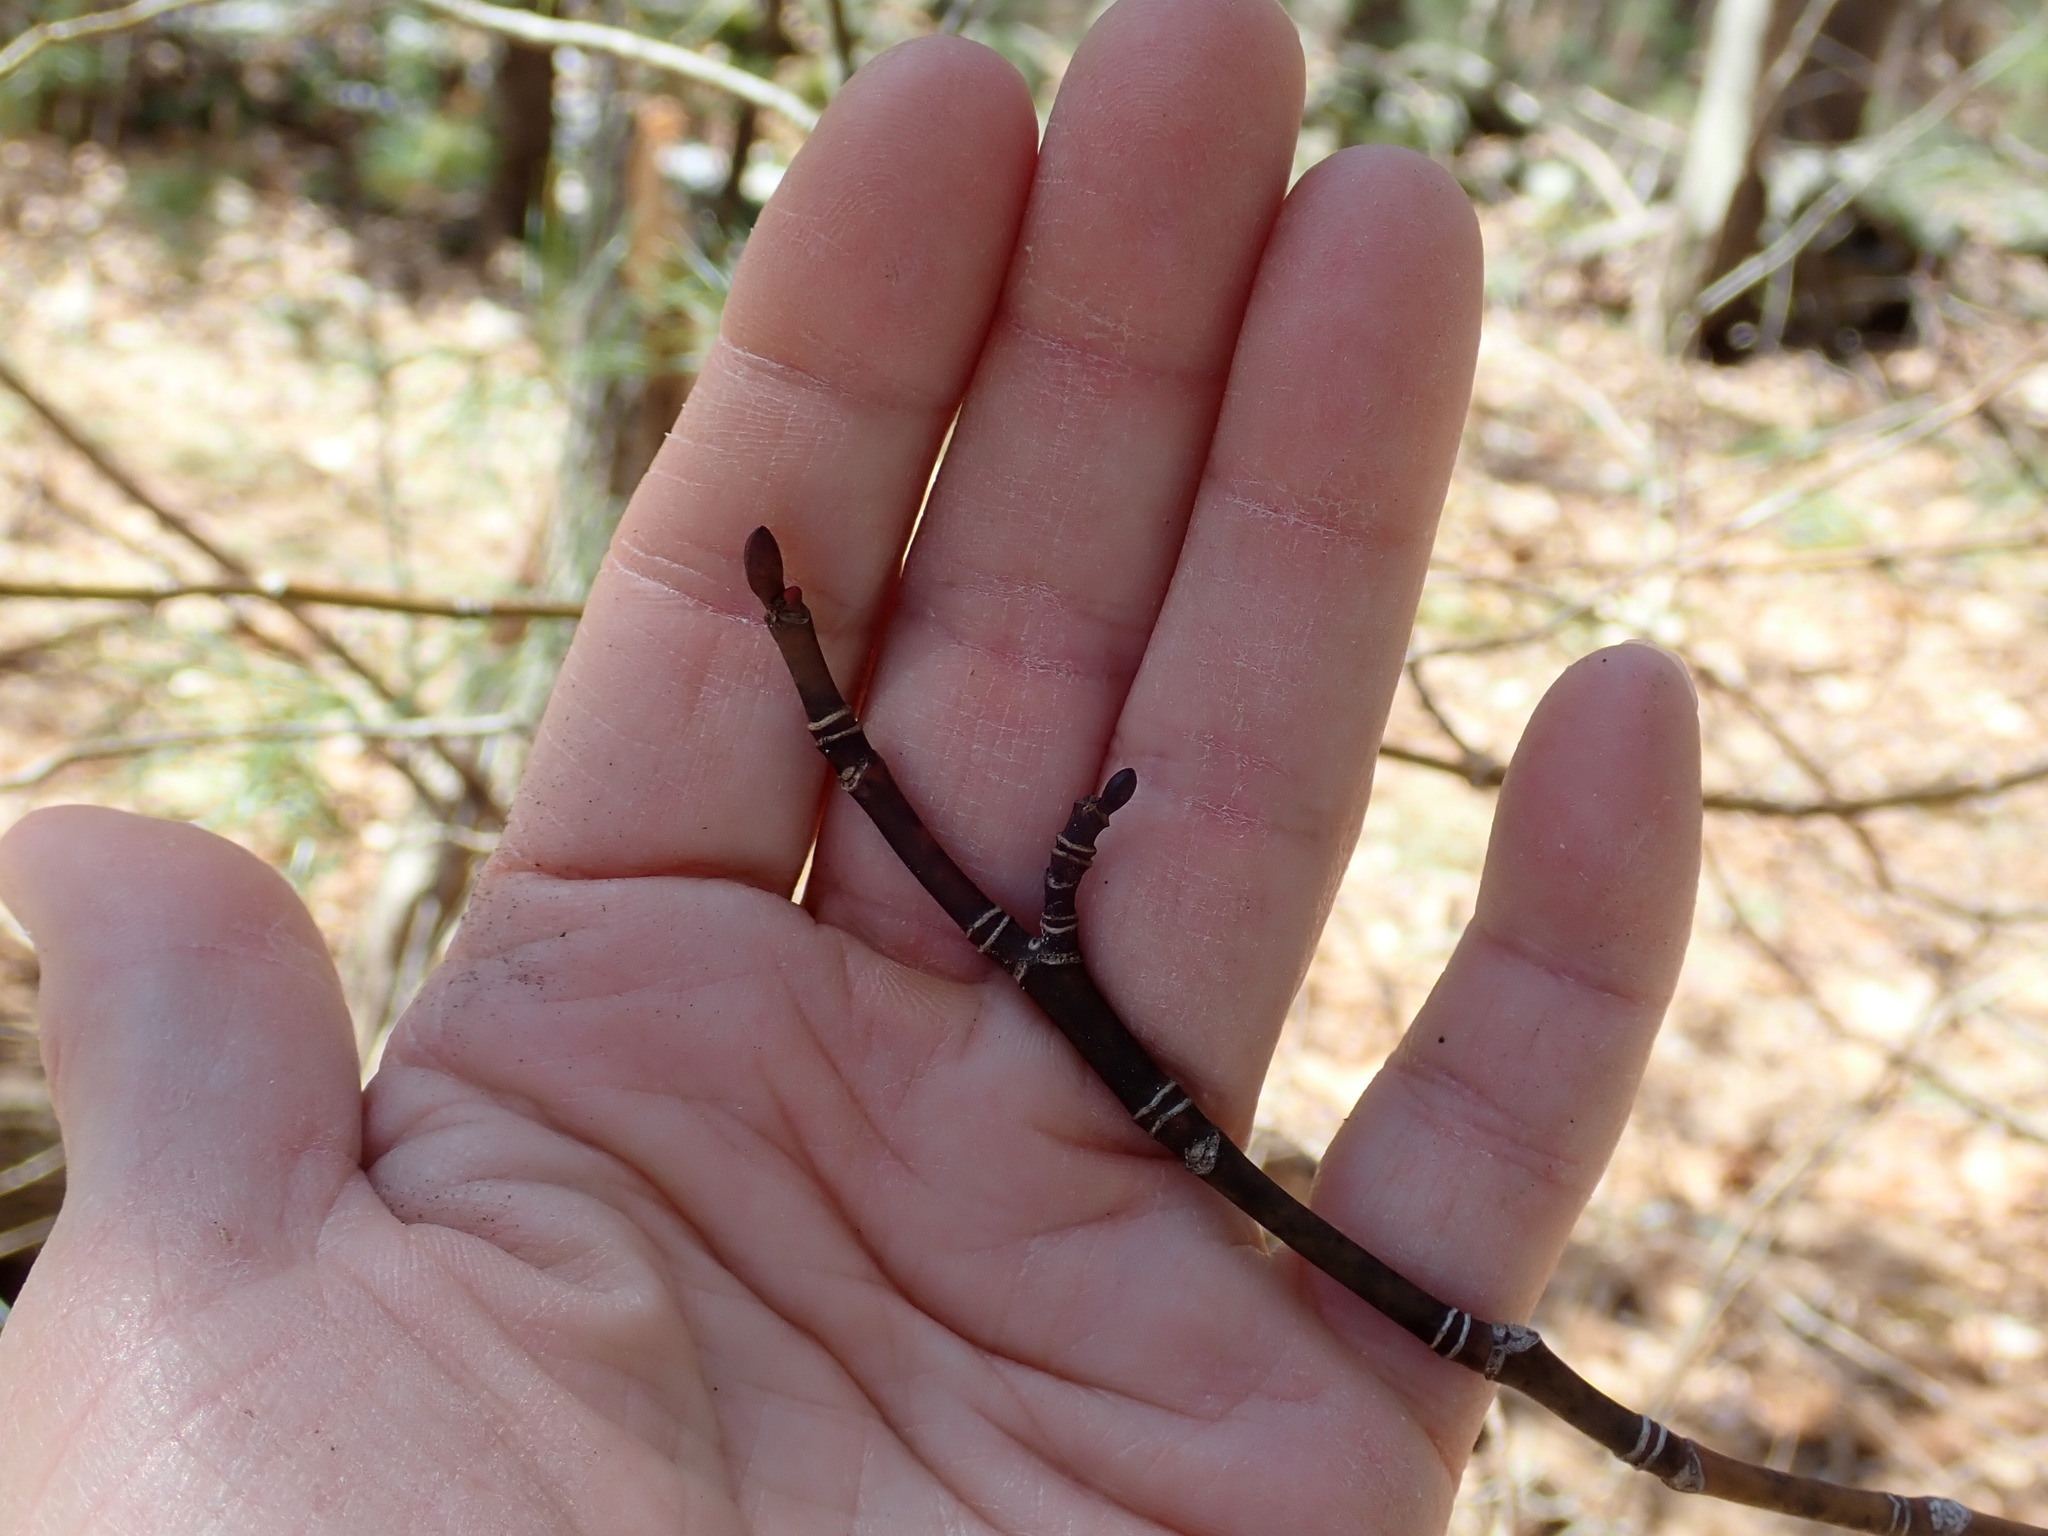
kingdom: Plantae
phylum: Tracheophyta
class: Magnoliopsida
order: Sapindales
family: Sapindaceae
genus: Acer
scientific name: Acer pensylvanicum
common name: Moosewood
